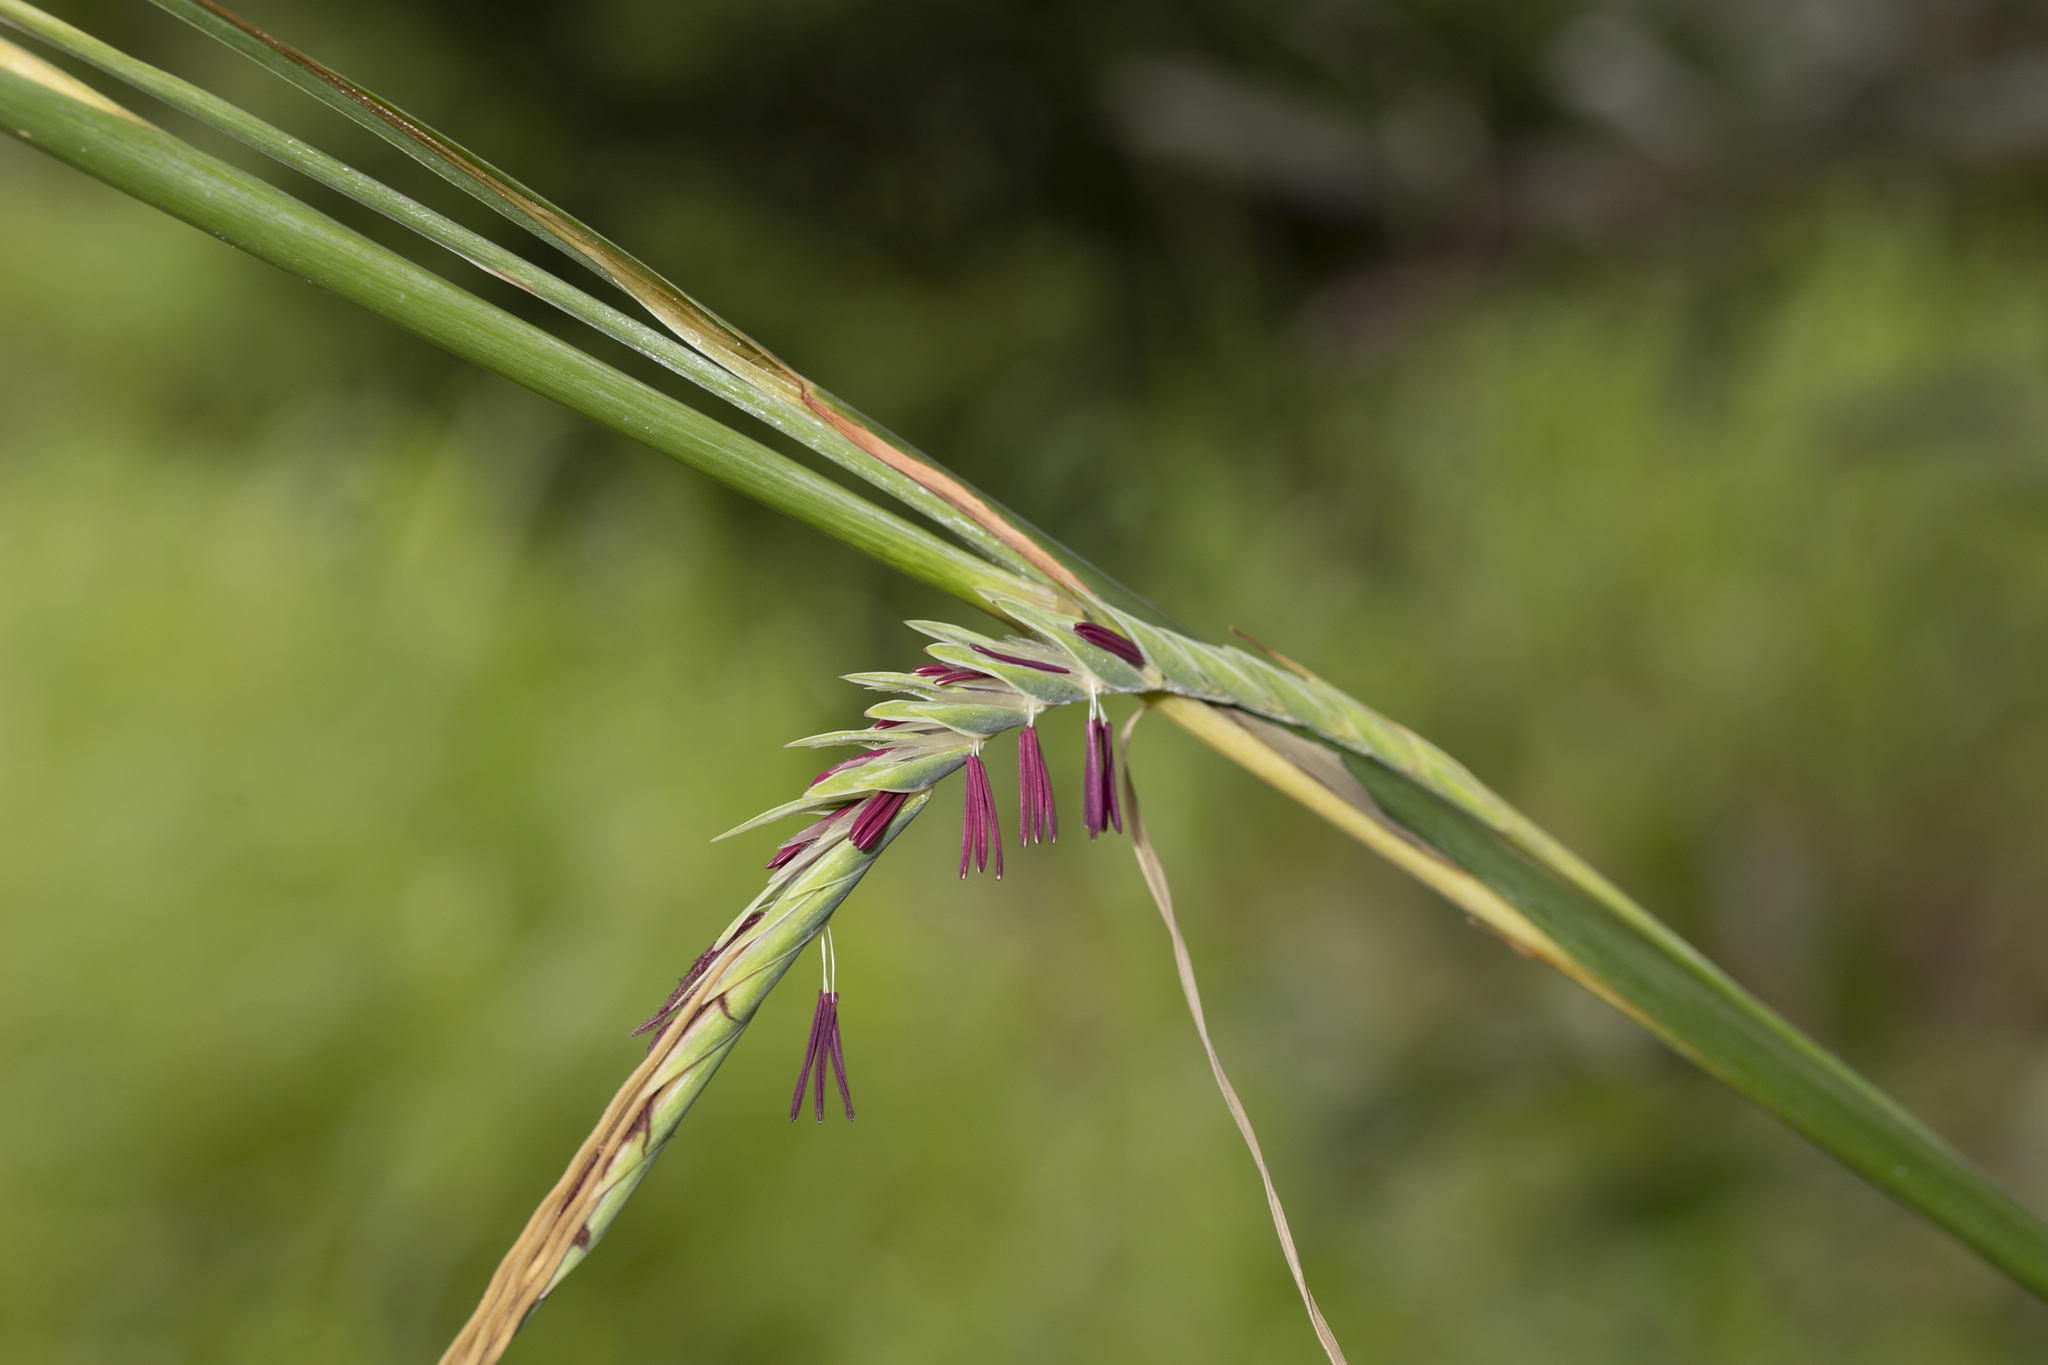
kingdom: Plantae
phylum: Tracheophyta
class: Liliopsida
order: Poales
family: Poaceae
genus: Heteropogon
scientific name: Heteropogon triticeus
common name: Sugar grass
